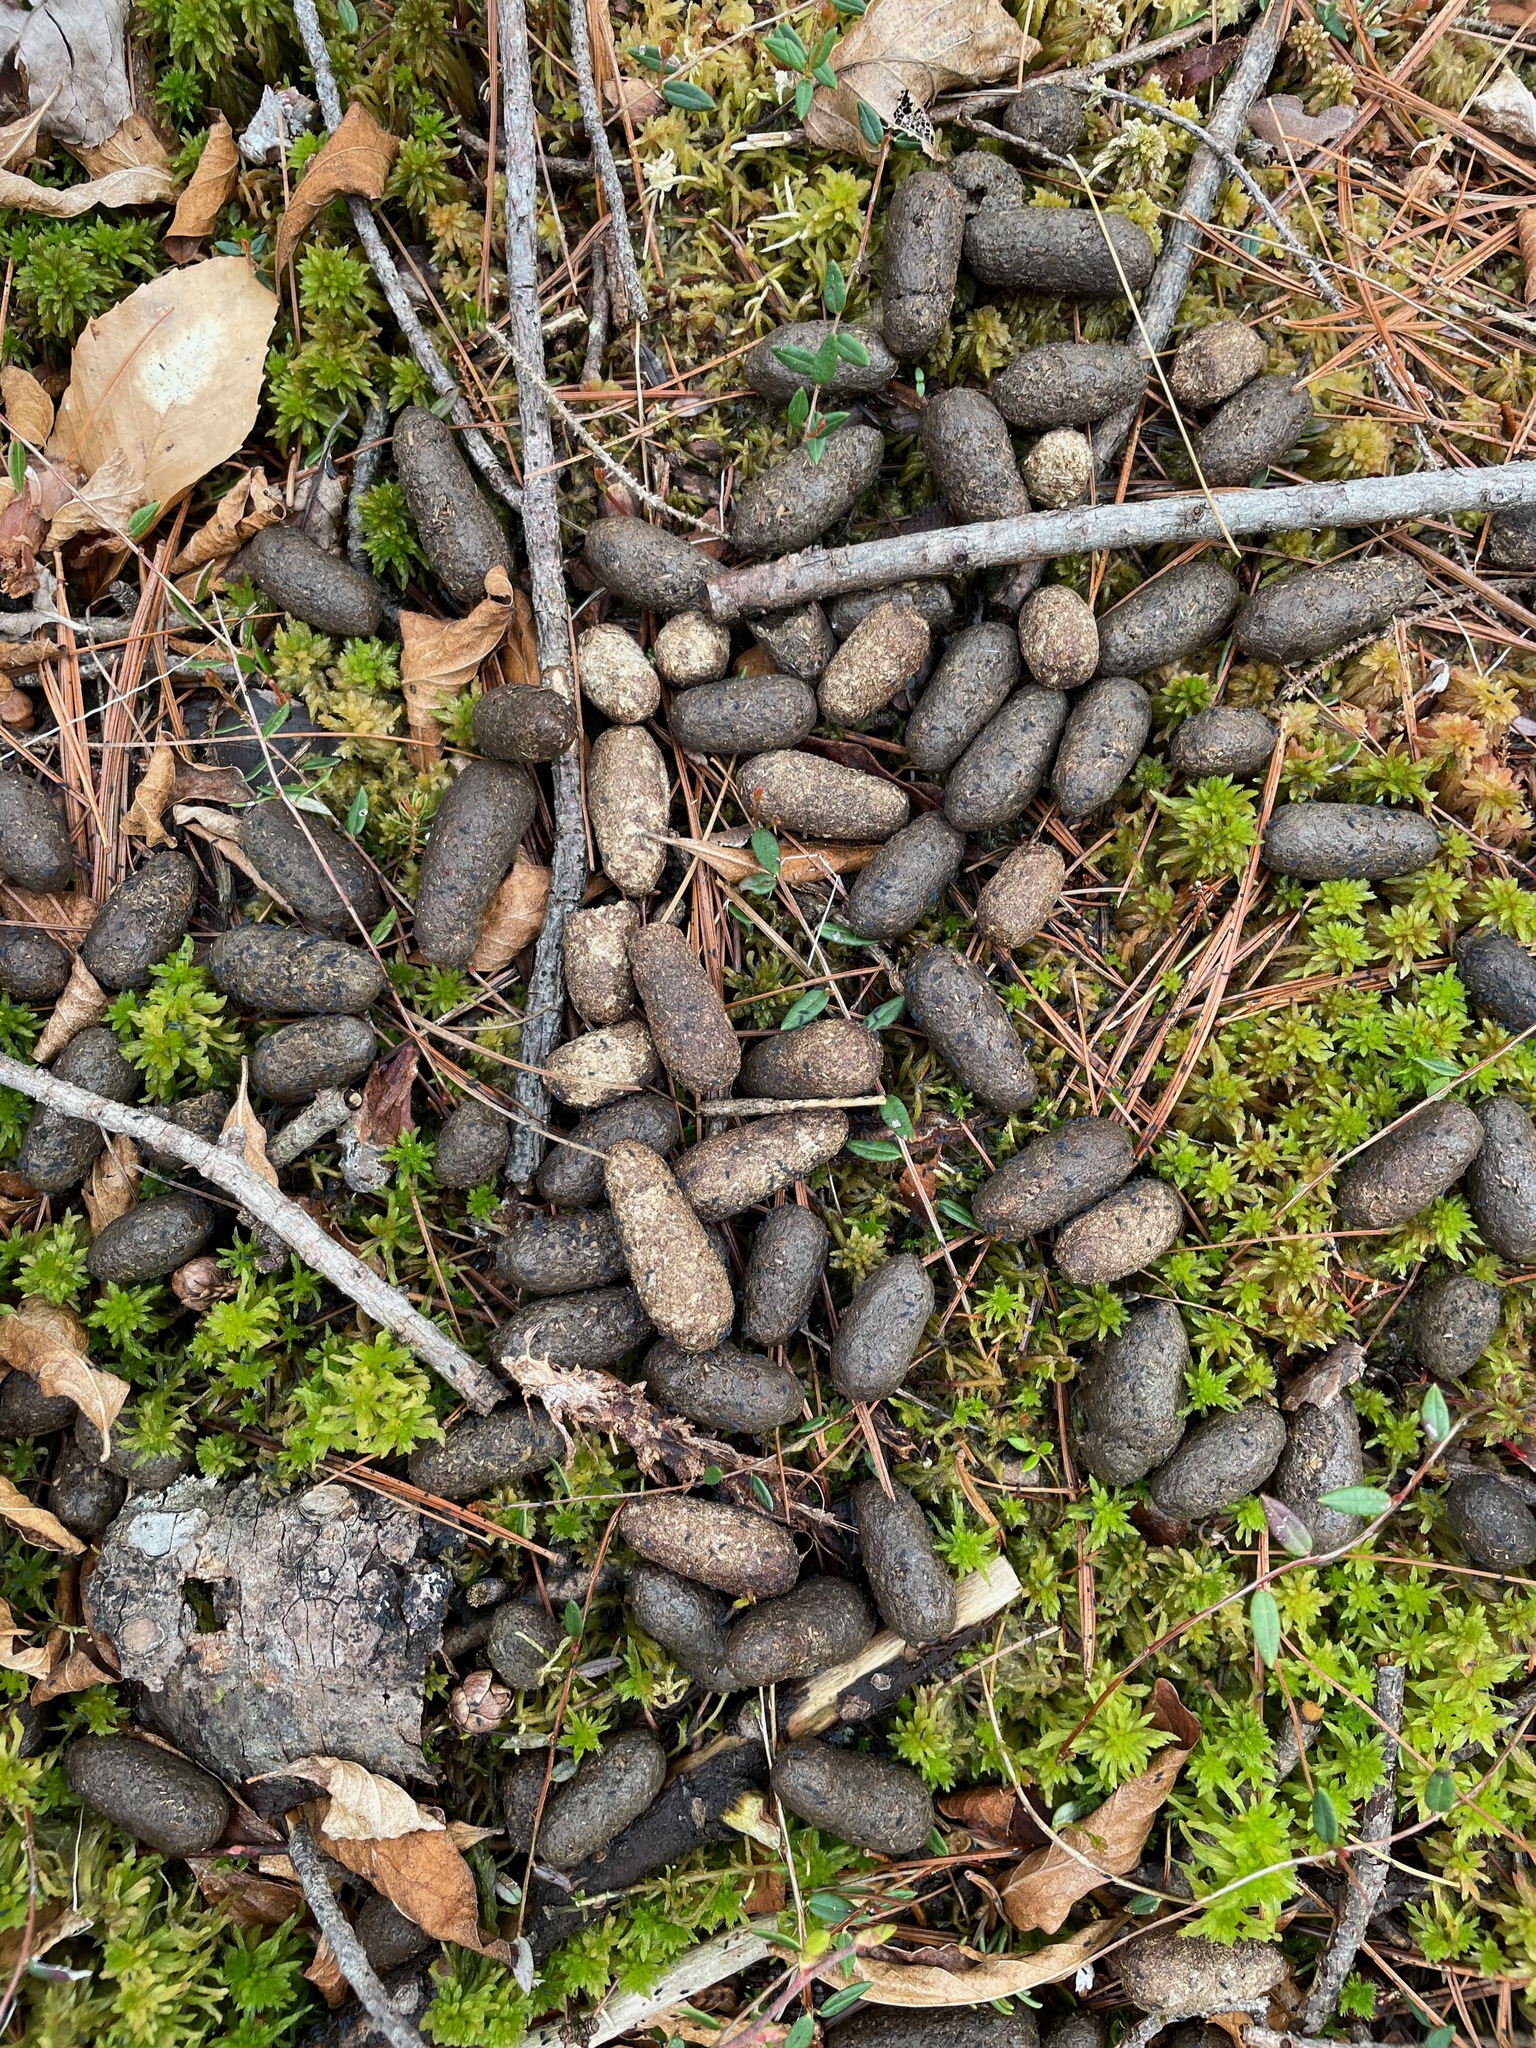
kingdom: Animalia
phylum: Chordata
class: Mammalia
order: Artiodactyla
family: Cervidae
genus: Odocoileus
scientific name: Odocoileus virginianus
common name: White-tailed deer
